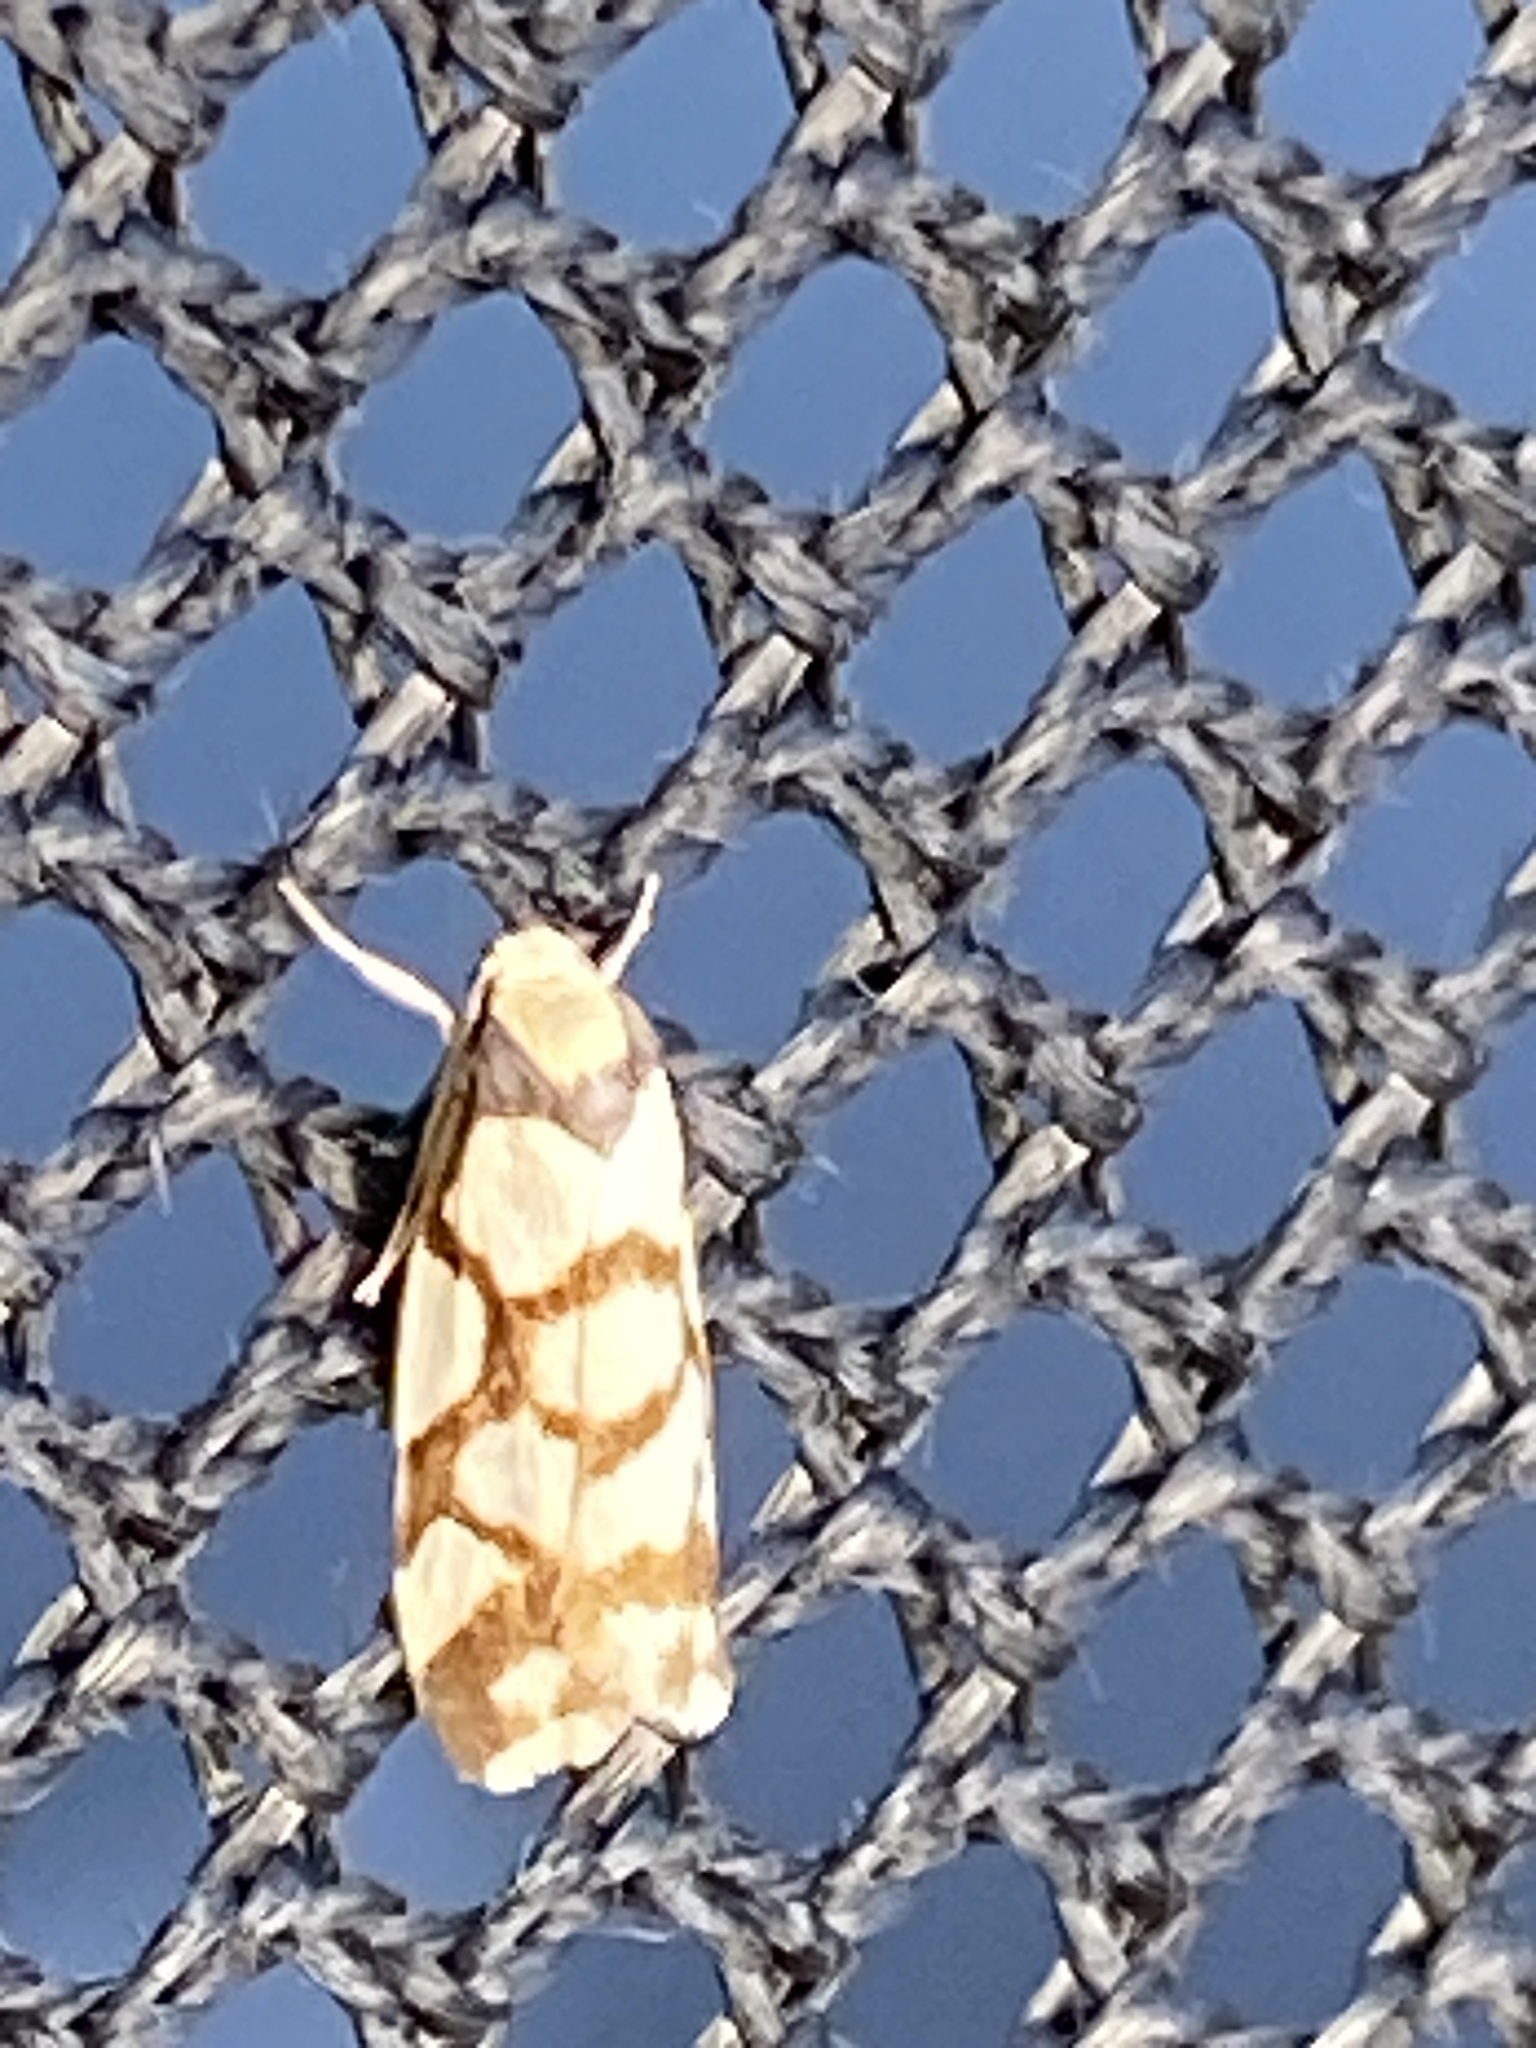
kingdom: Animalia
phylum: Arthropoda
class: Insecta
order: Lepidoptera
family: Erebidae
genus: Scaptesyle
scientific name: Scaptesyle dichotoma
